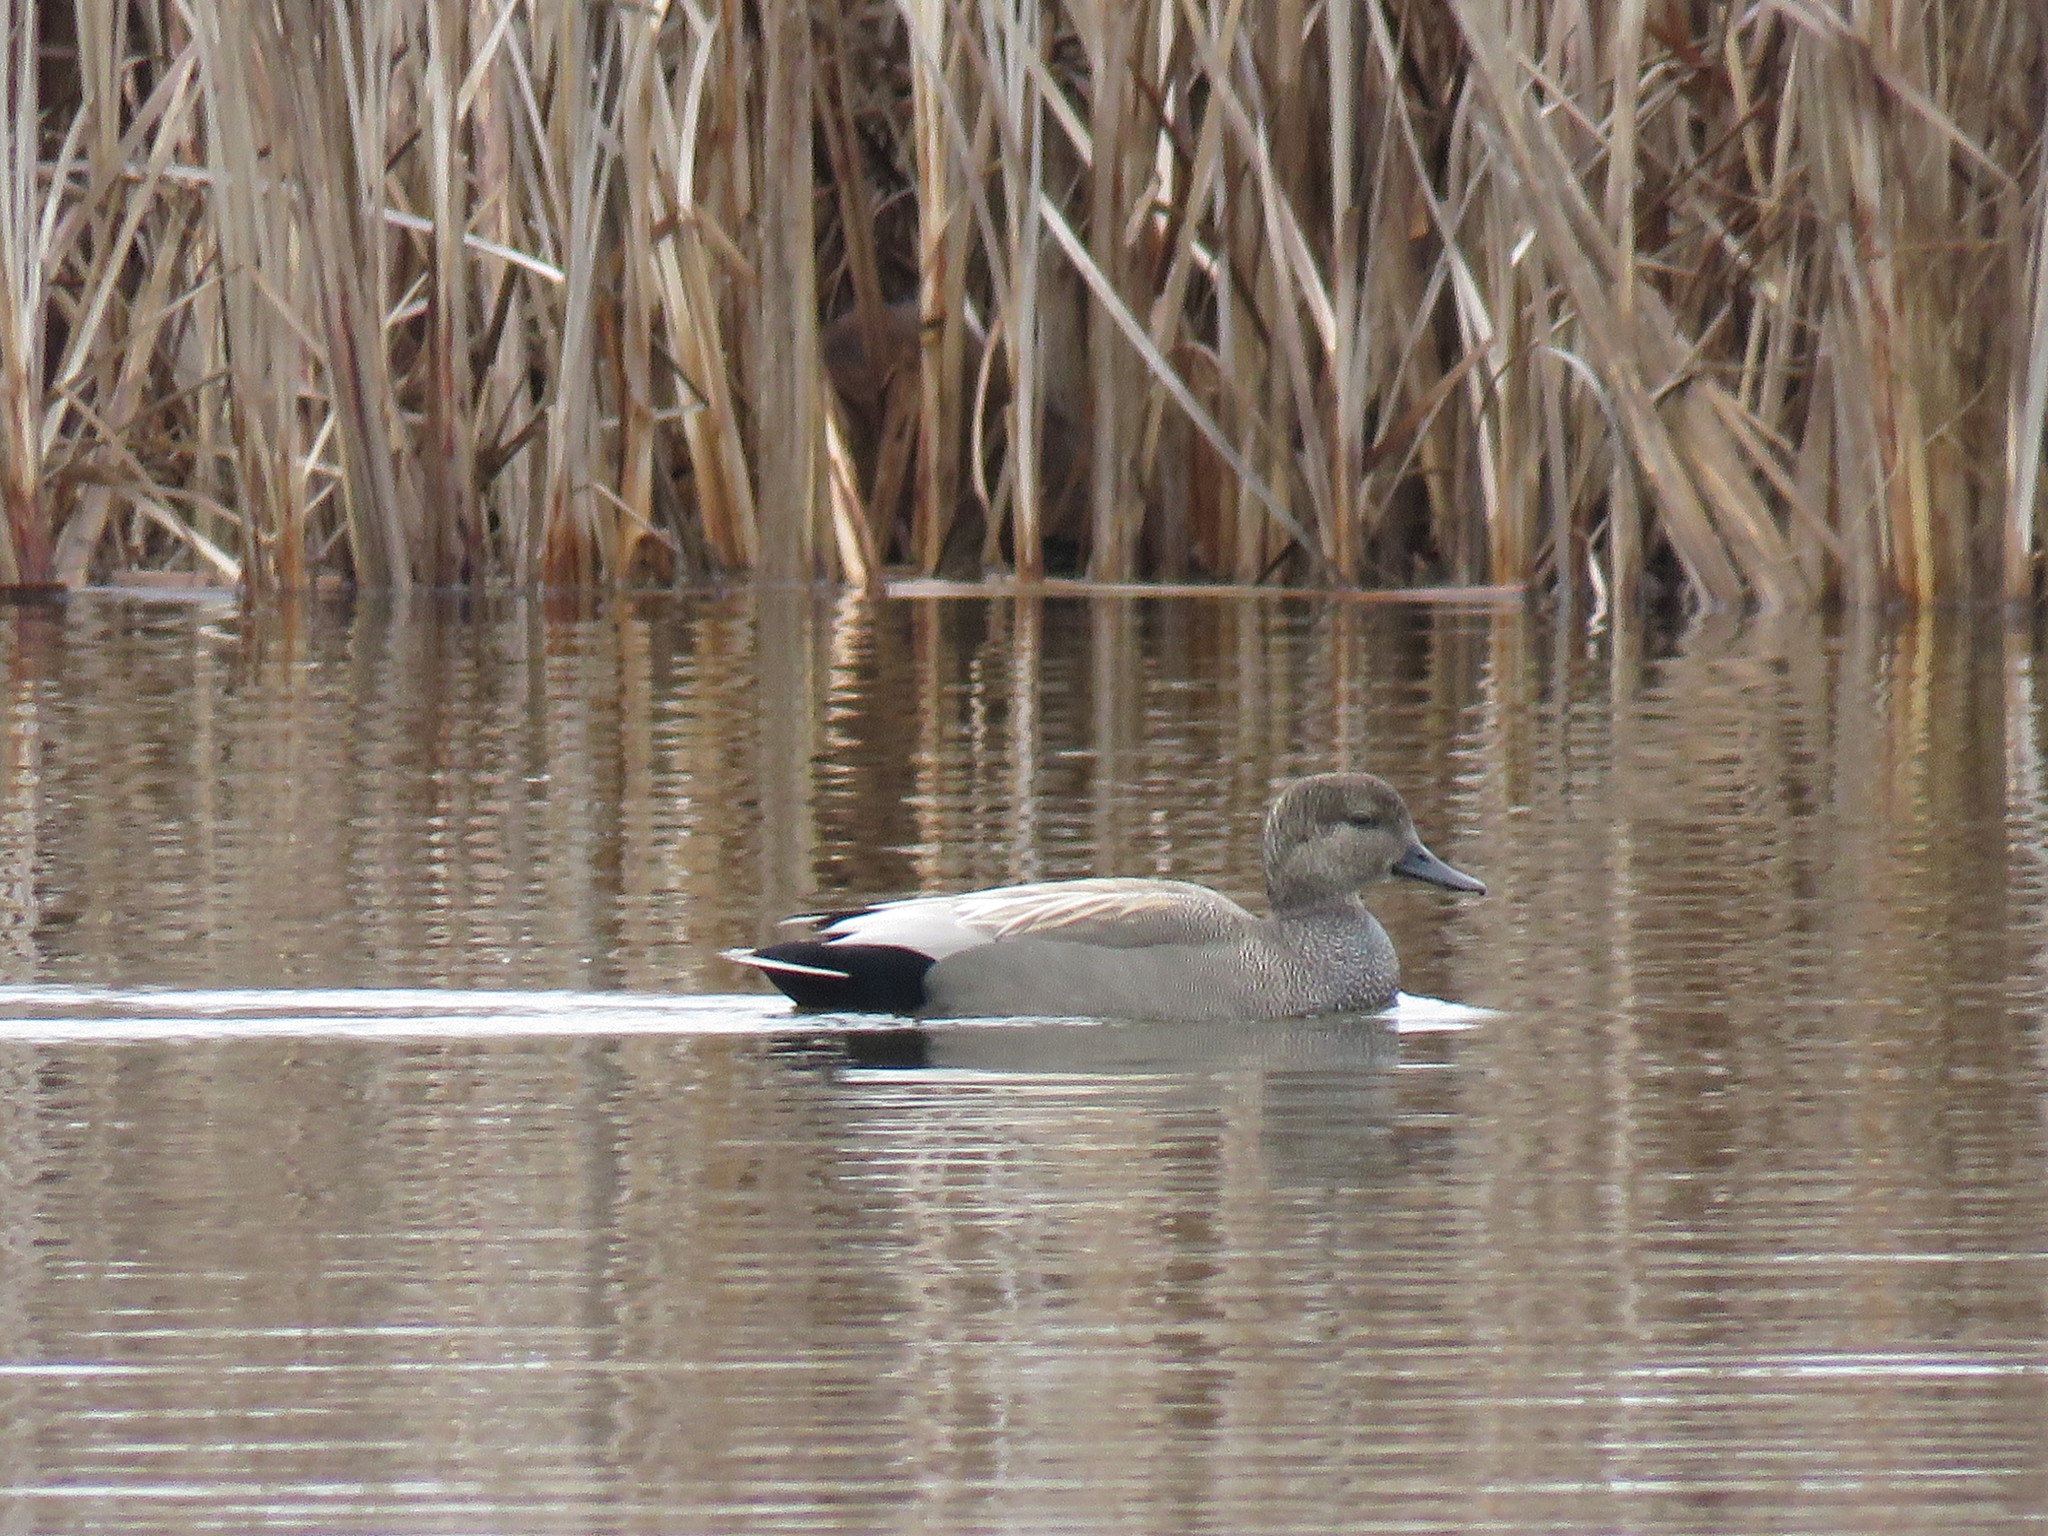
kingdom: Animalia
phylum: Chordata
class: Aves
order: Anseriformes
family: Anatidae
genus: Mareca
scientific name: Mareca strepera
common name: Gadwall
